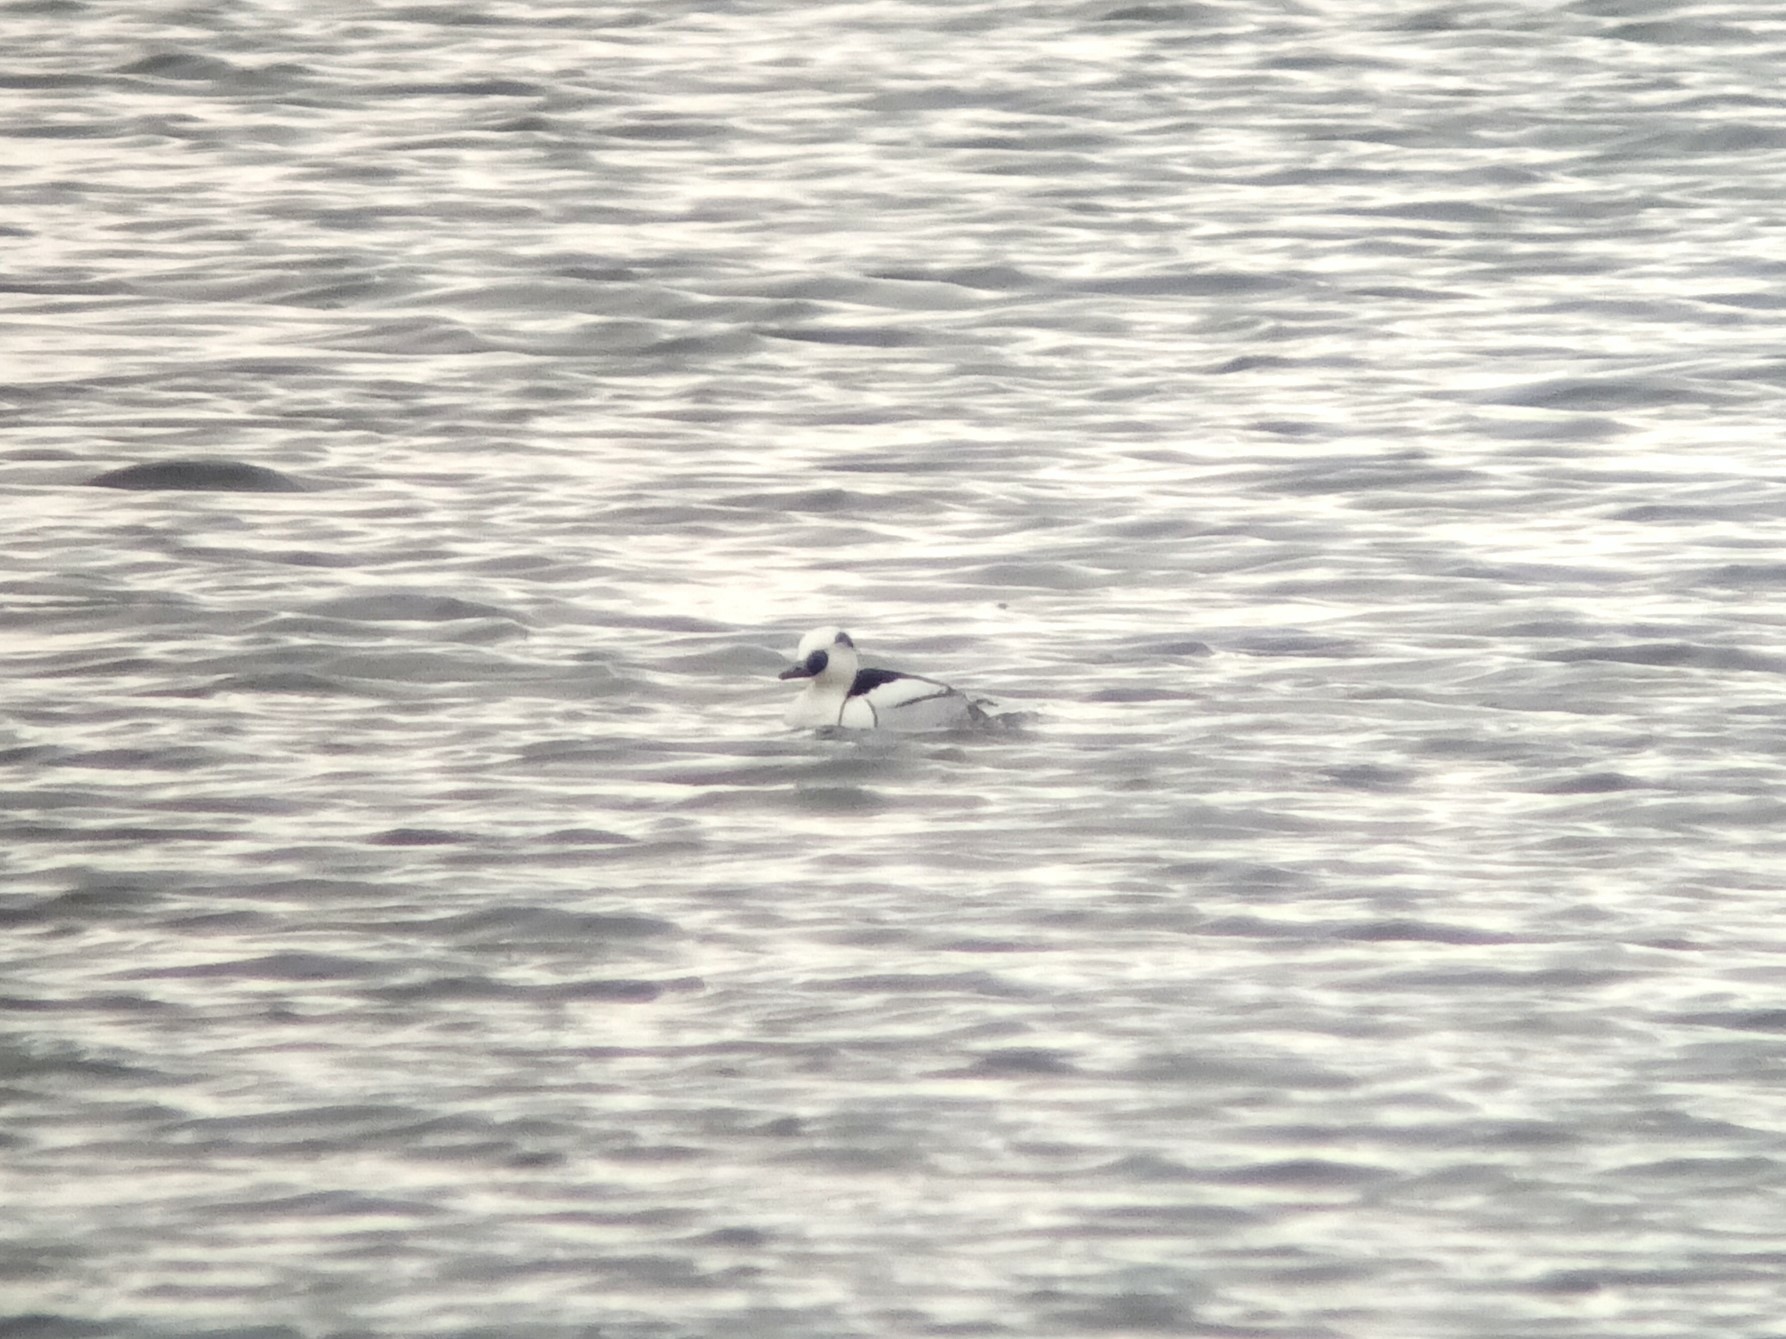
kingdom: Animalia
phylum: Chordata
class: Aves
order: Anseriformes
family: Anatidae
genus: Mergellus
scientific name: Mergellus albellus
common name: Smew
